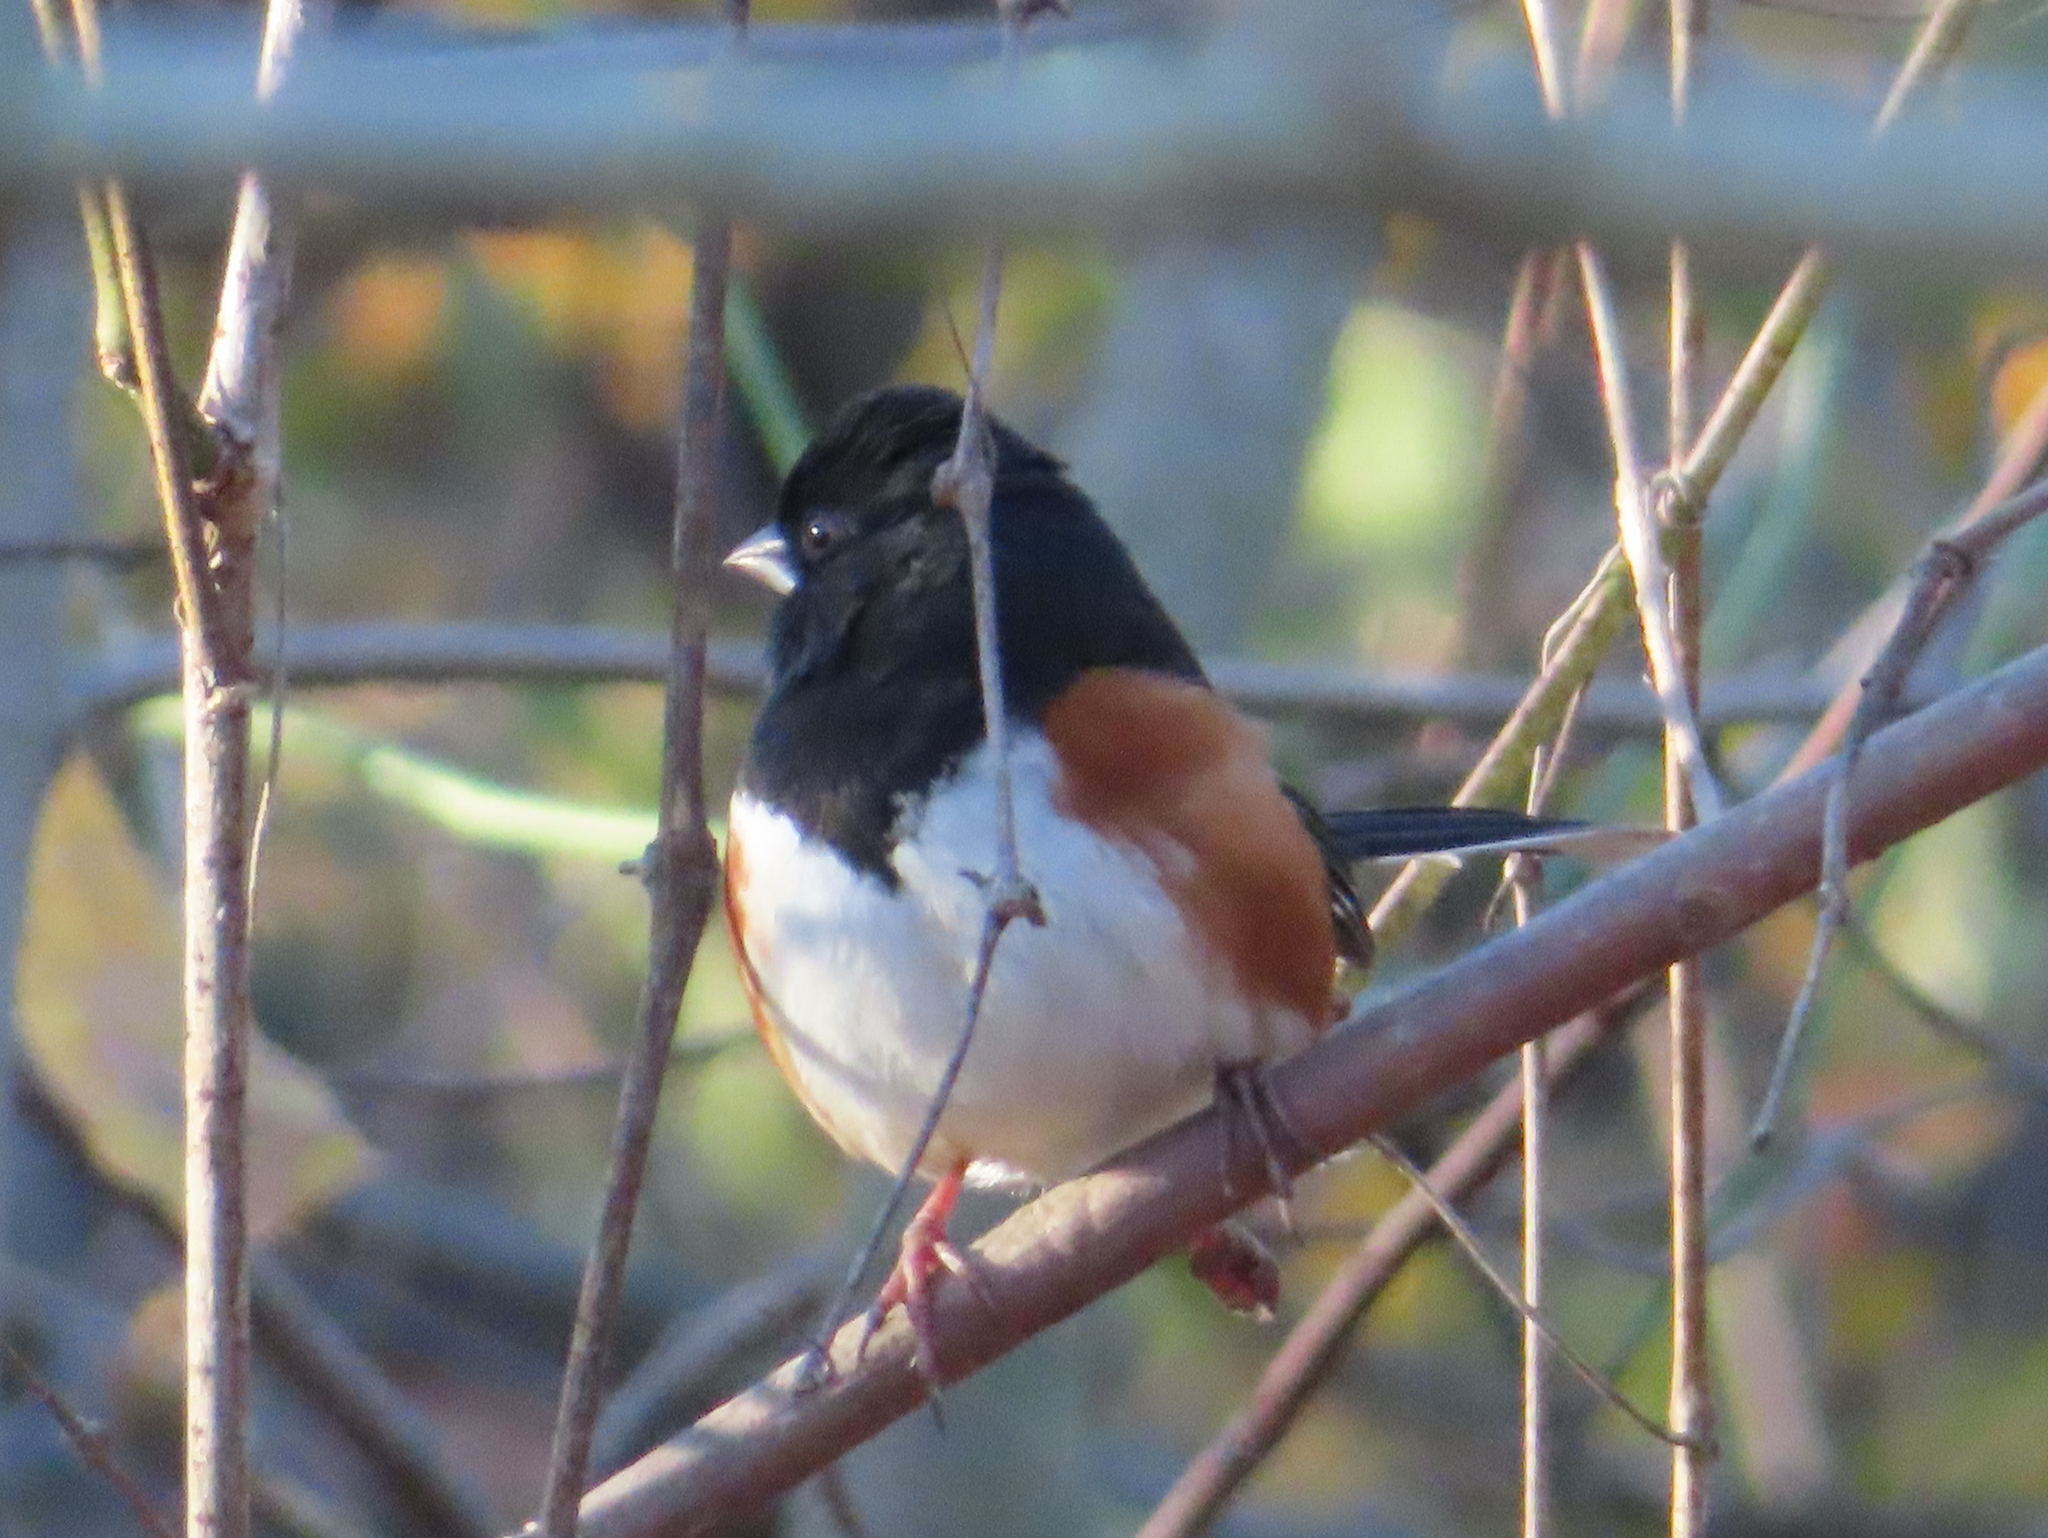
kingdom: Animalia
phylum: Chordata
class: Aves
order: Passeriformes
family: Passerellidae
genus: Pipilo
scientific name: Pipilo erythrophthalmus
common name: Eastern towhee
